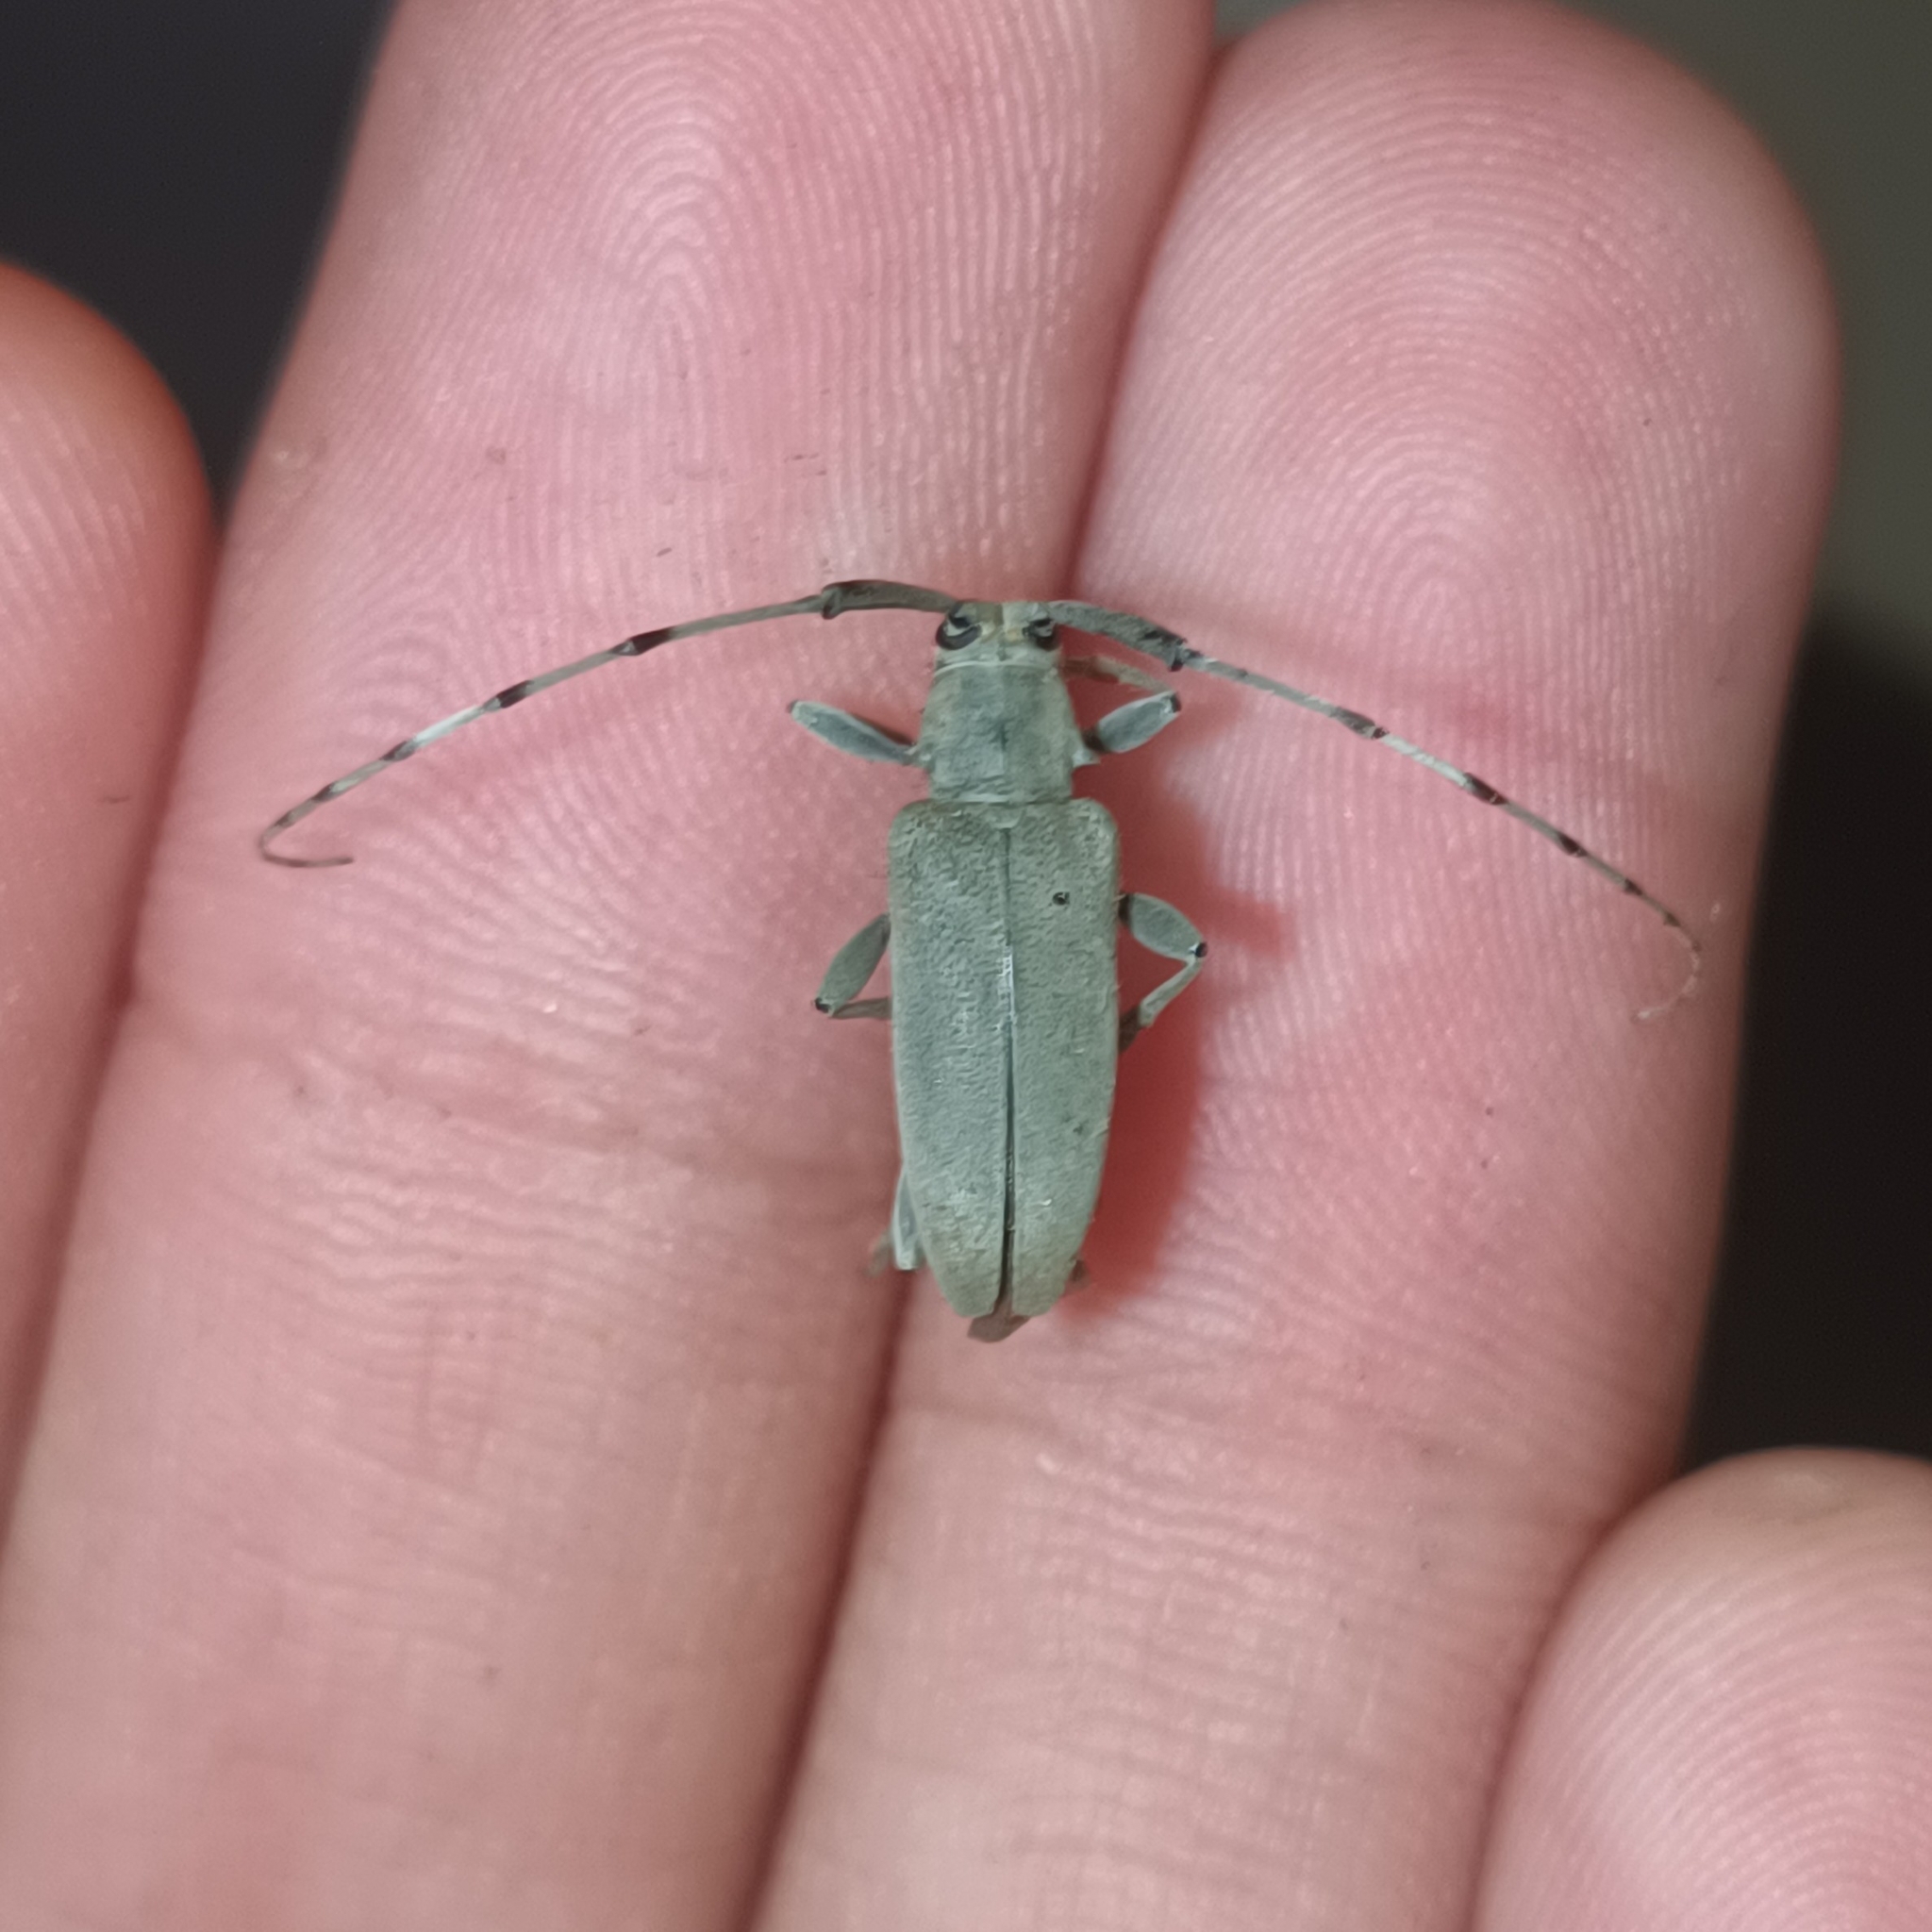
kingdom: Animalia
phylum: Arthropoda
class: Insecta
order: Coleoptera
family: Cerambycidae
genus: Canidia
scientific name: Canidia canescens
